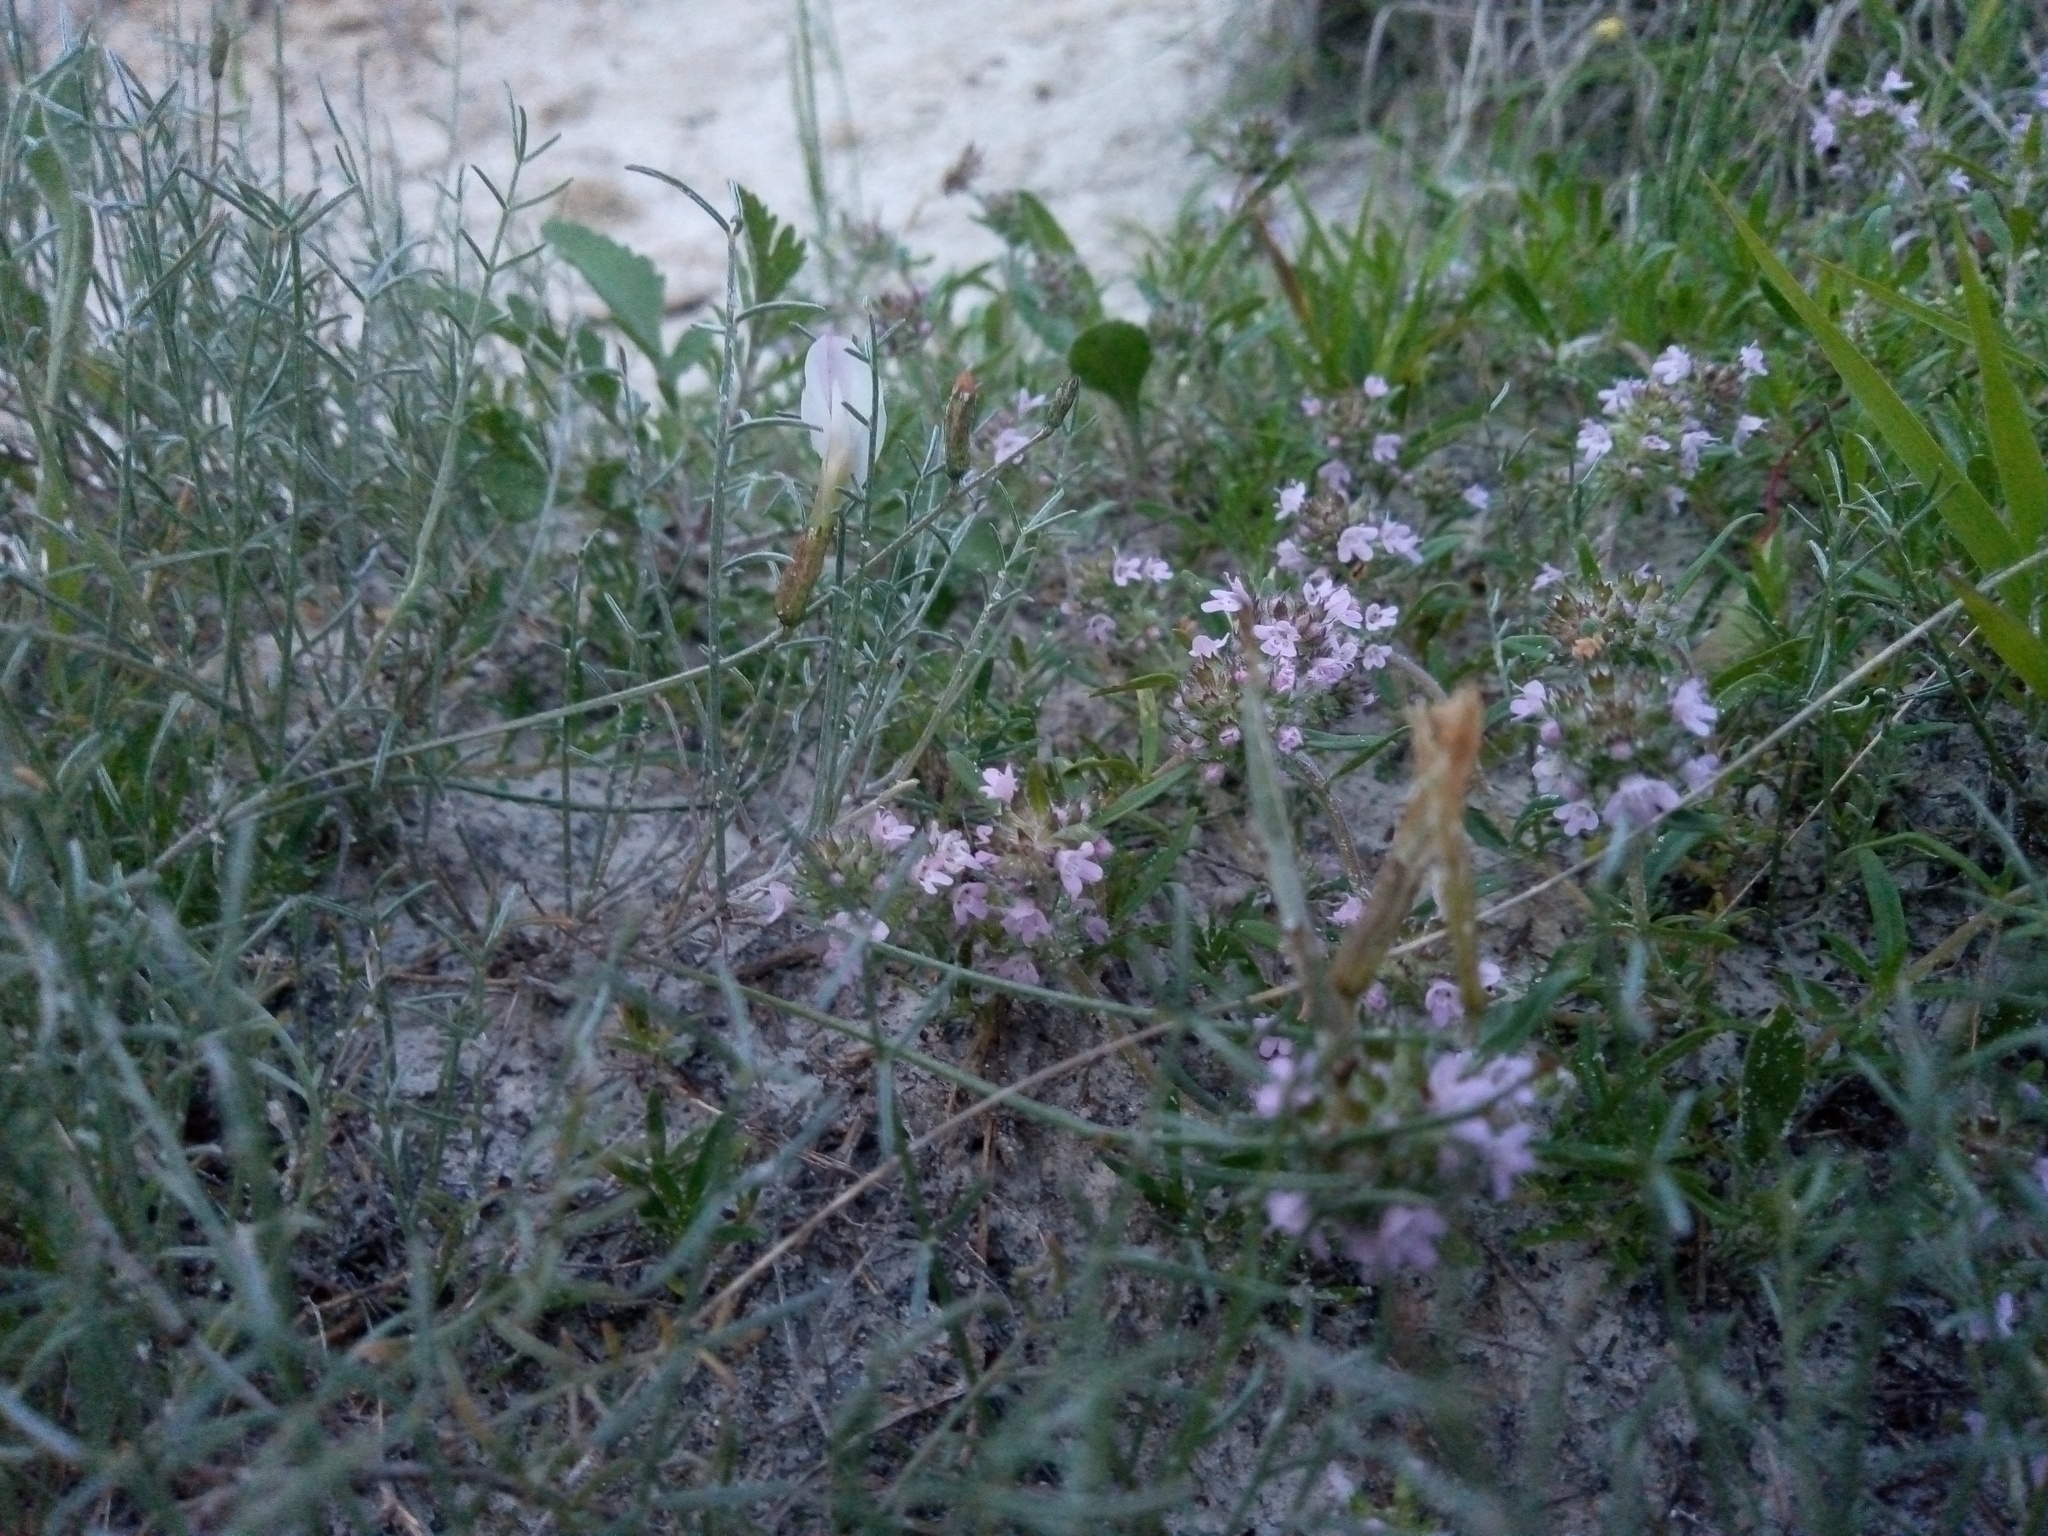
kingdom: Plantae
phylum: Tracheophyta
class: Magnoliopsida
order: Fabales
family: Fabaceae
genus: Astragalus
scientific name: Astragalus ucrainicus
